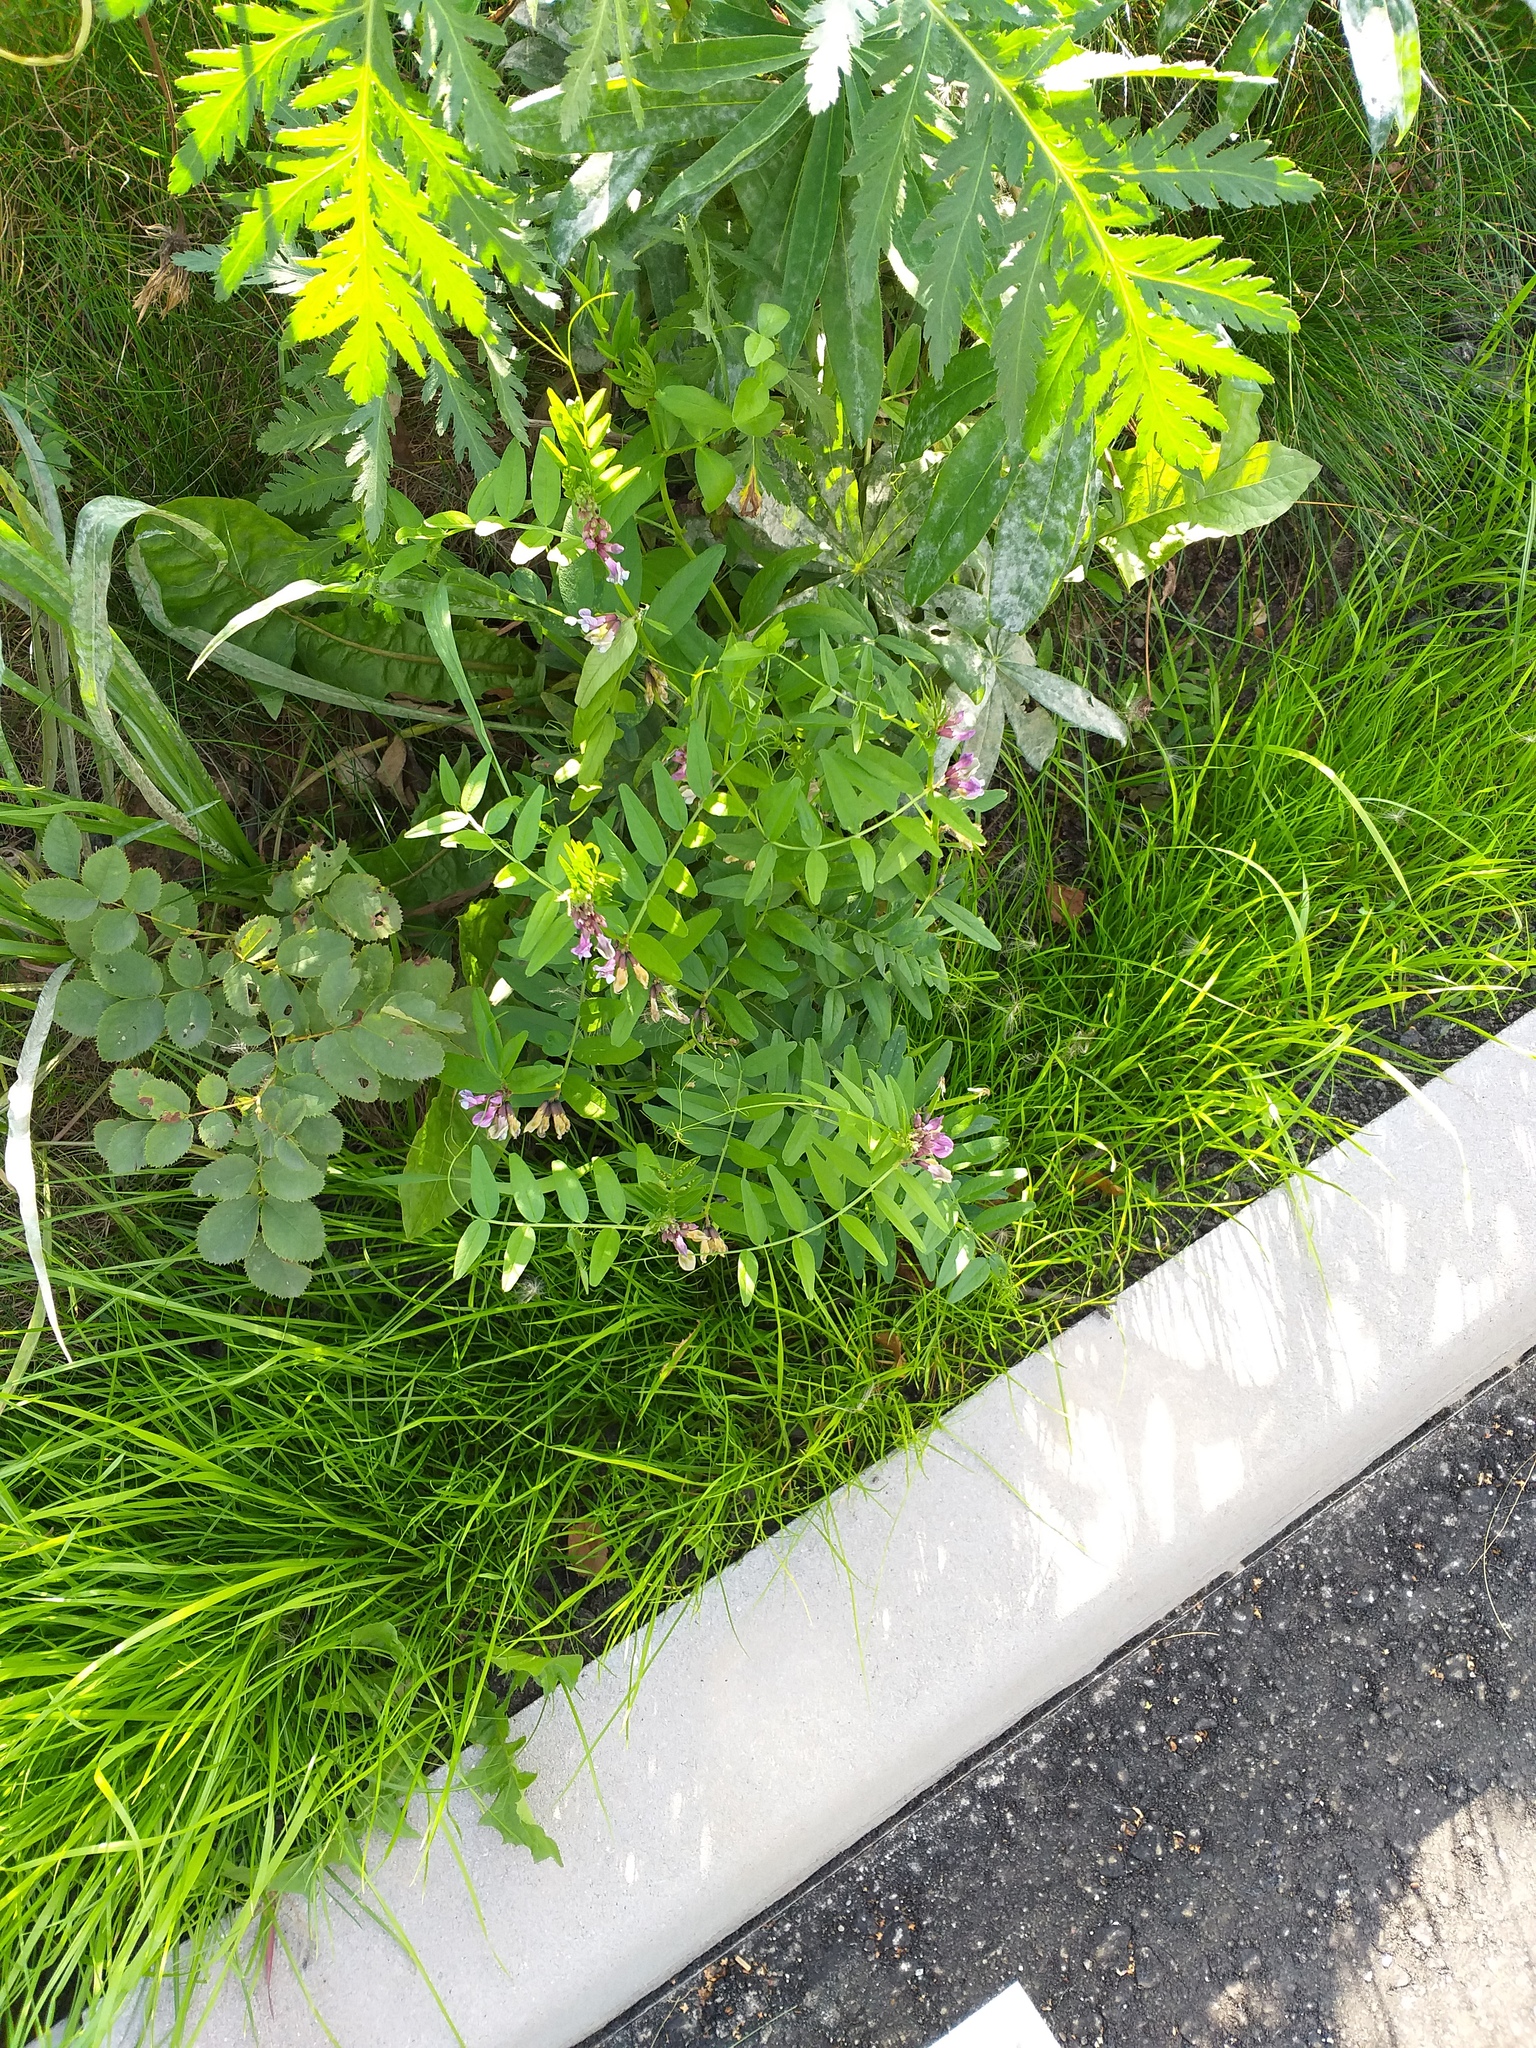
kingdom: Plantae
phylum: Tracheophyta
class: Magnoliopsida
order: Fabales
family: Fabaceae
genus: Vicia
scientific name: Vicia sepium
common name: Bush vetch
